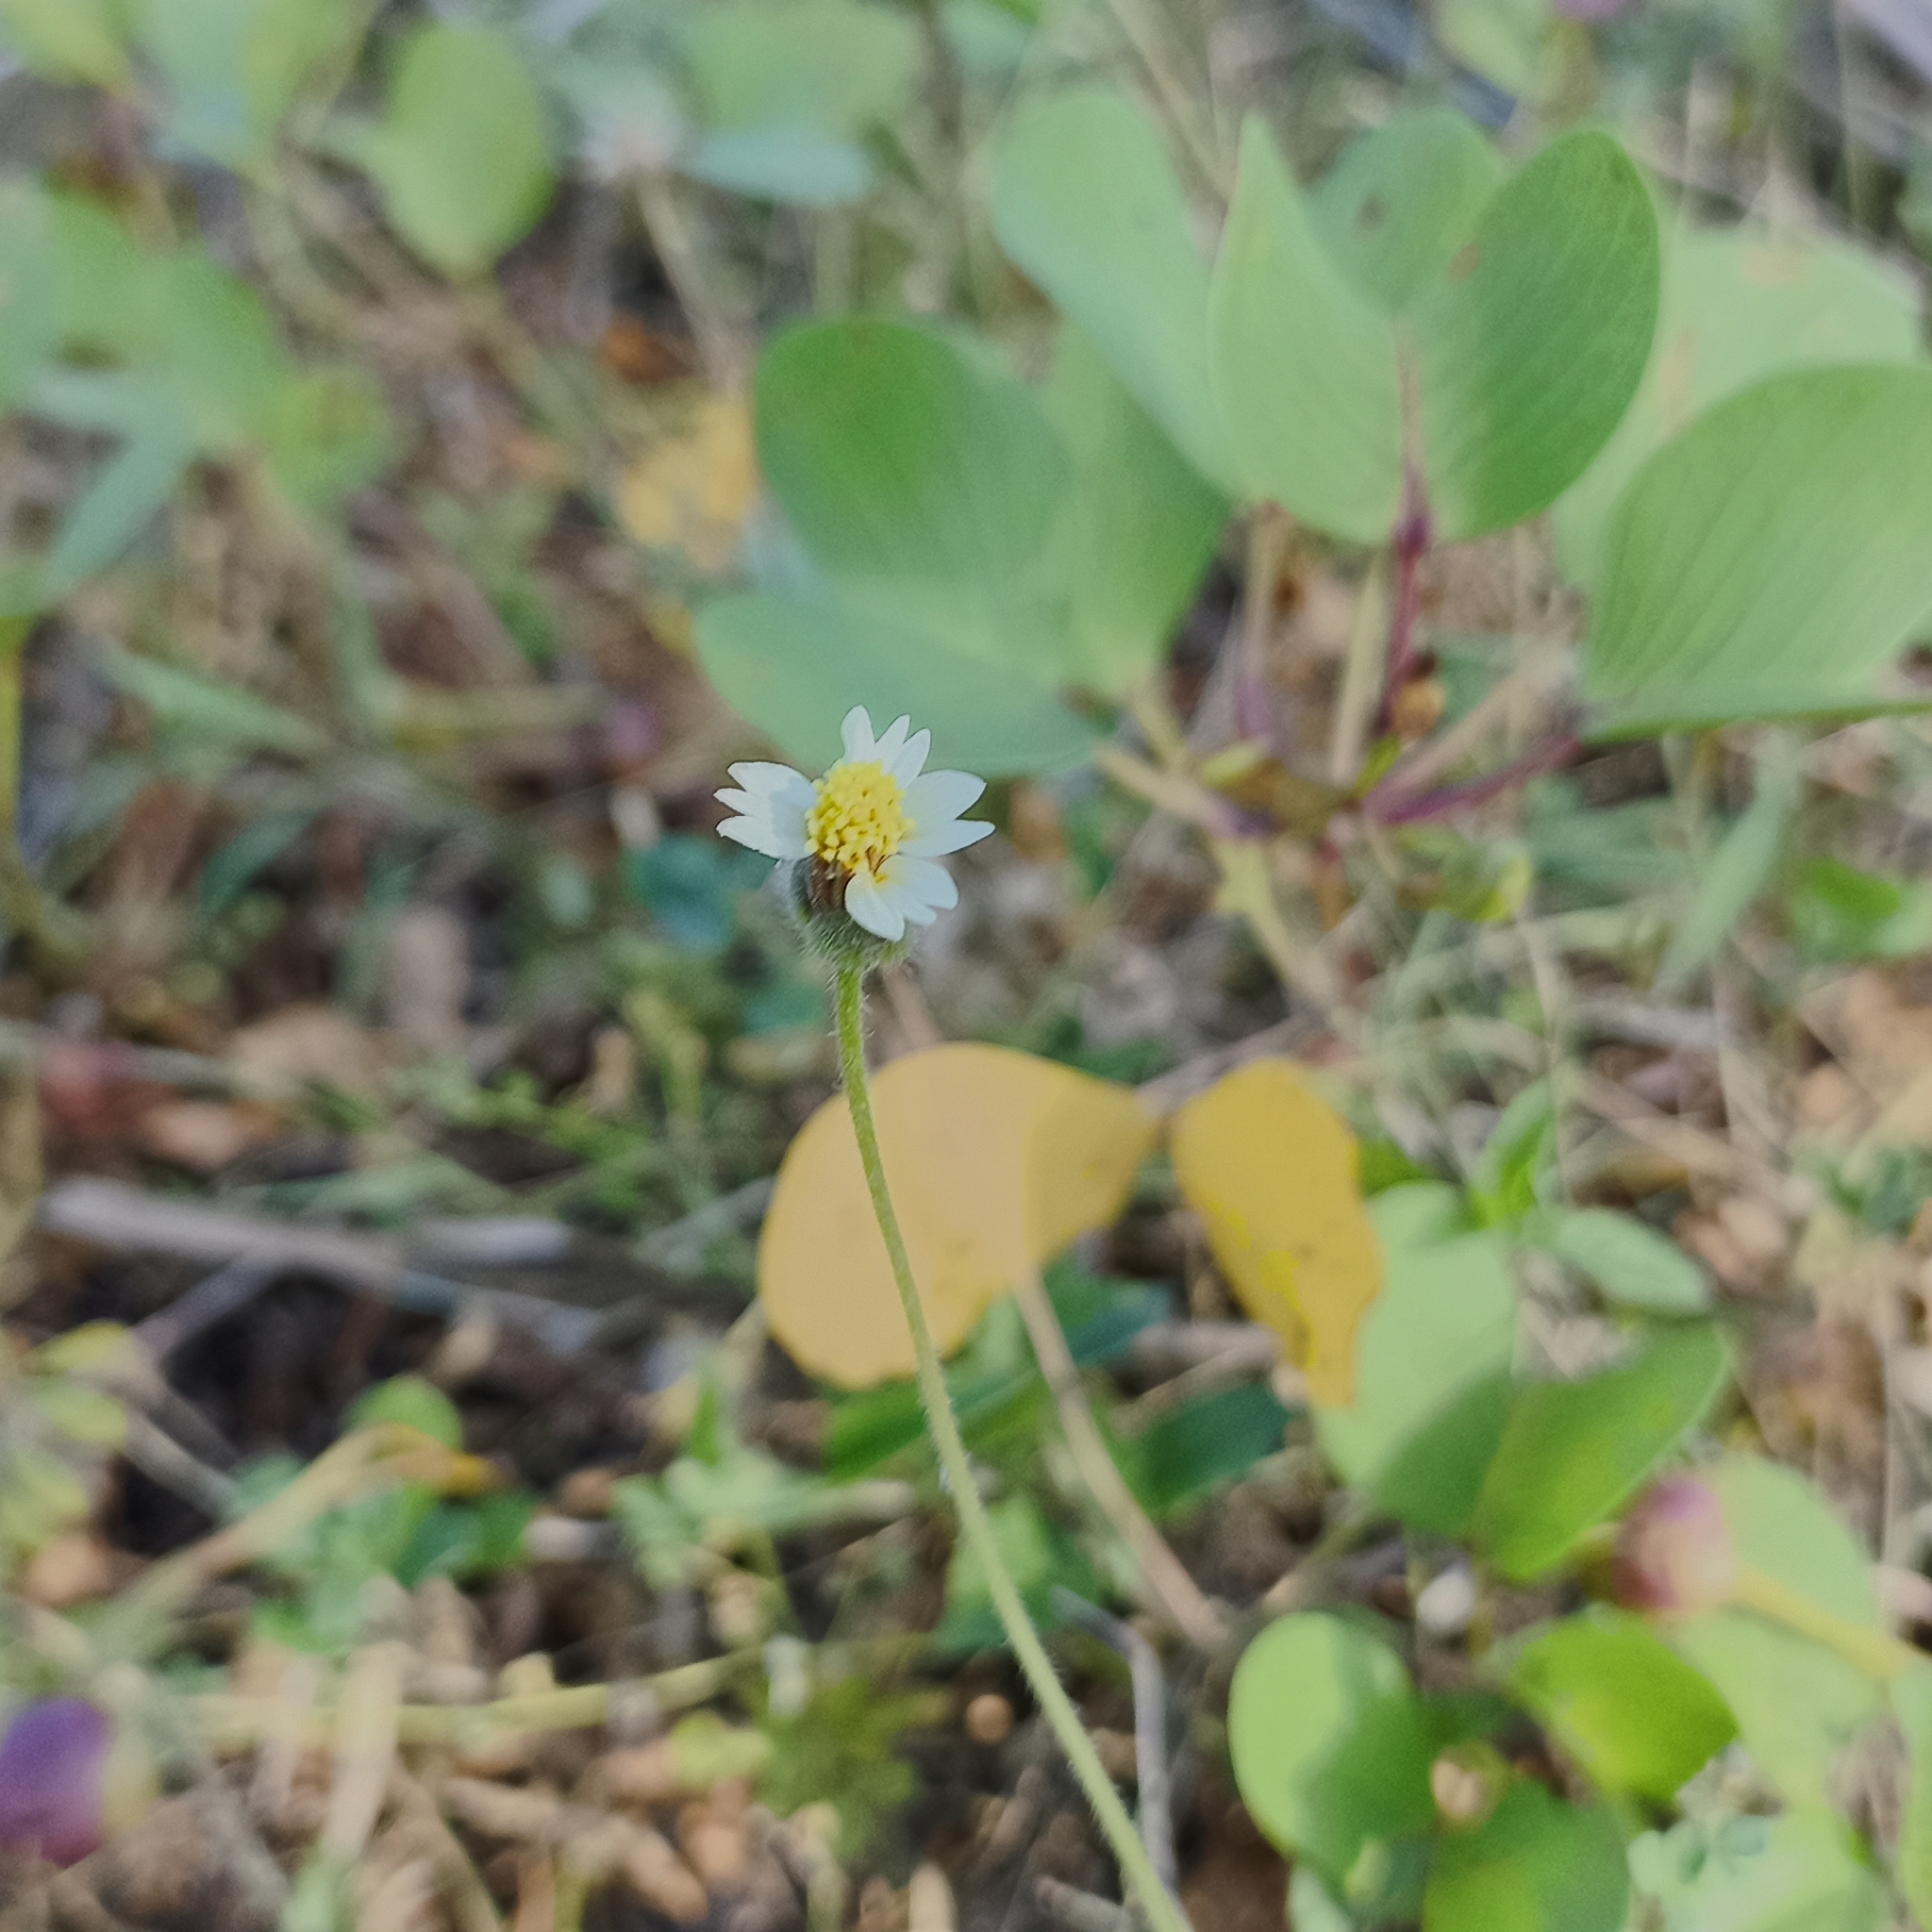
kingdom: Plantae
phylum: Tracheophyta
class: Magnoliopsida
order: Asterales
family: Asteraceae
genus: Tridax
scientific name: Tridax procumbens
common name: Coatbuttons
